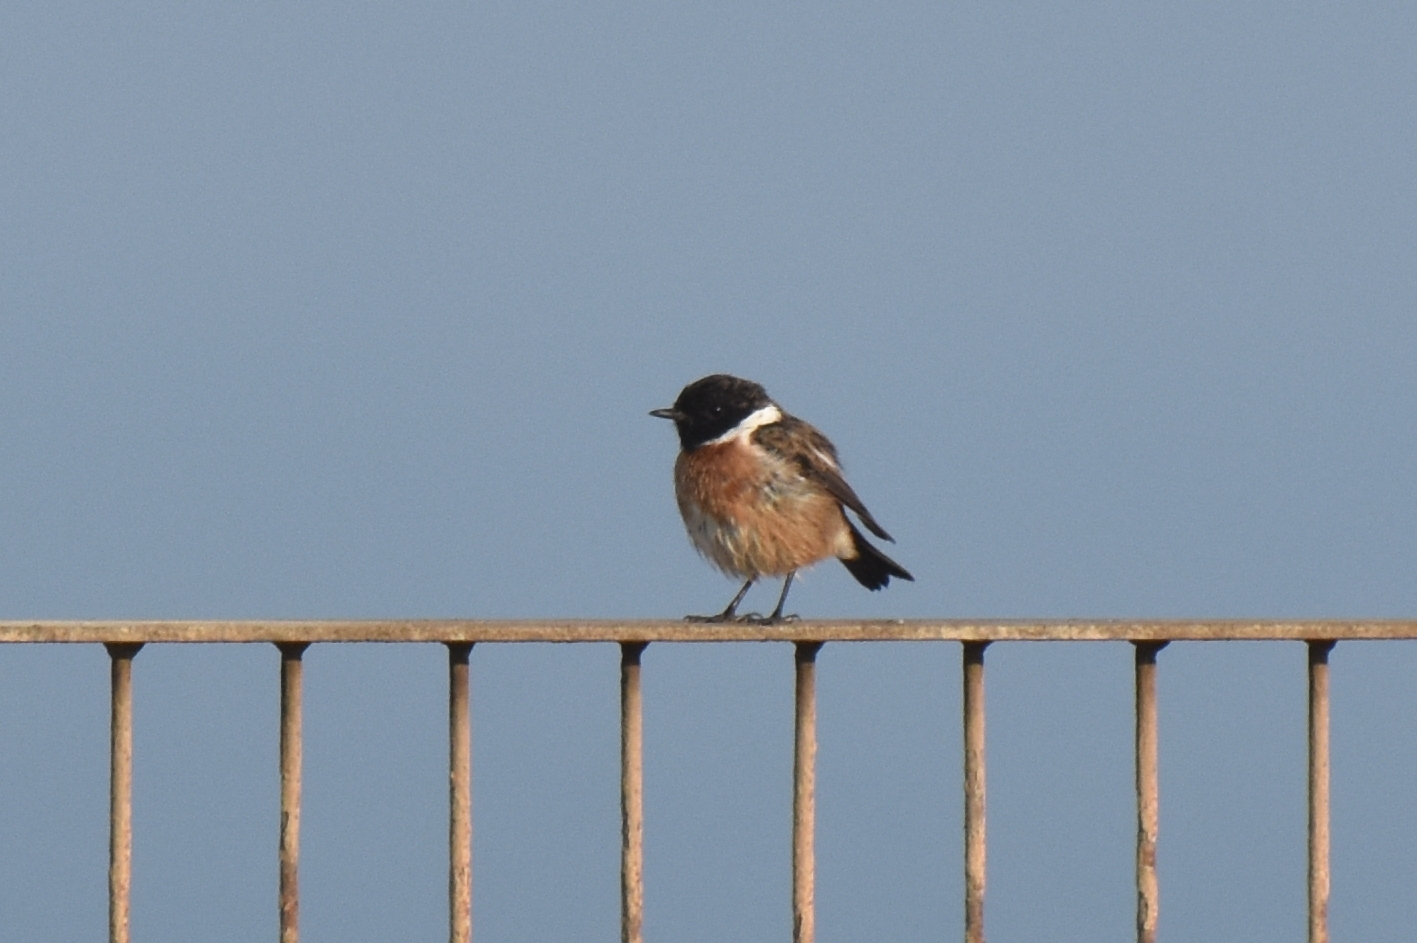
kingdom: Animalia
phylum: Chordata
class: Aves
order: Passeriformes
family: Muscicapidae
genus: Saxicola
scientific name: Saxicola rubicola
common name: European stonechat
